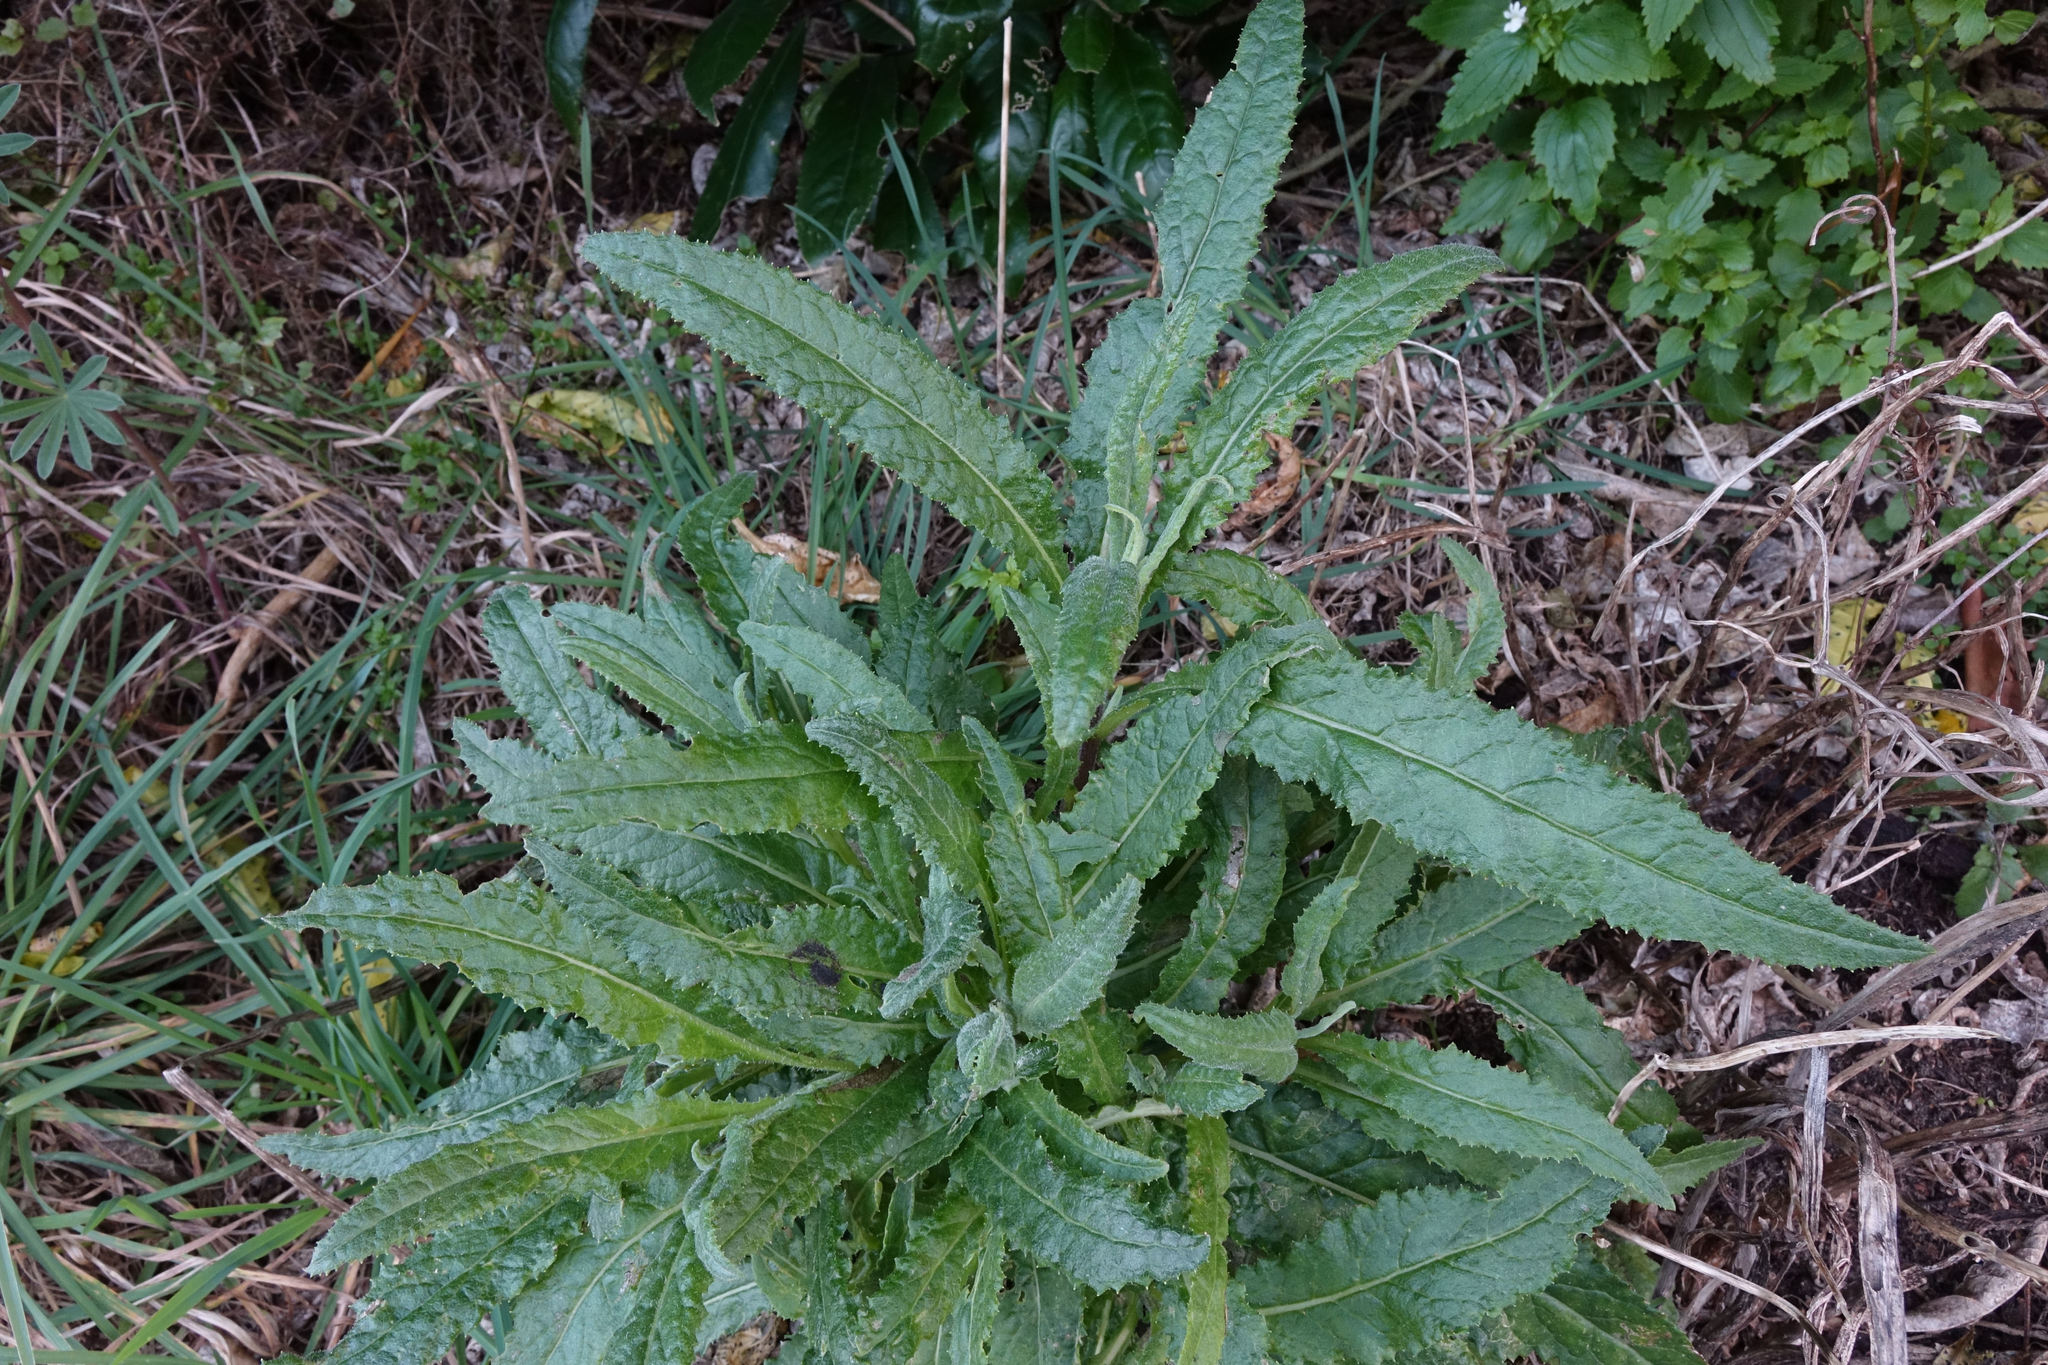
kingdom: Plantae
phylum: Tracheophyta
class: Magnoliopsida
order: Asterales
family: Asteraceae
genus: Senecio
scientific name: Senecio minimus
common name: Toothed fireweed
